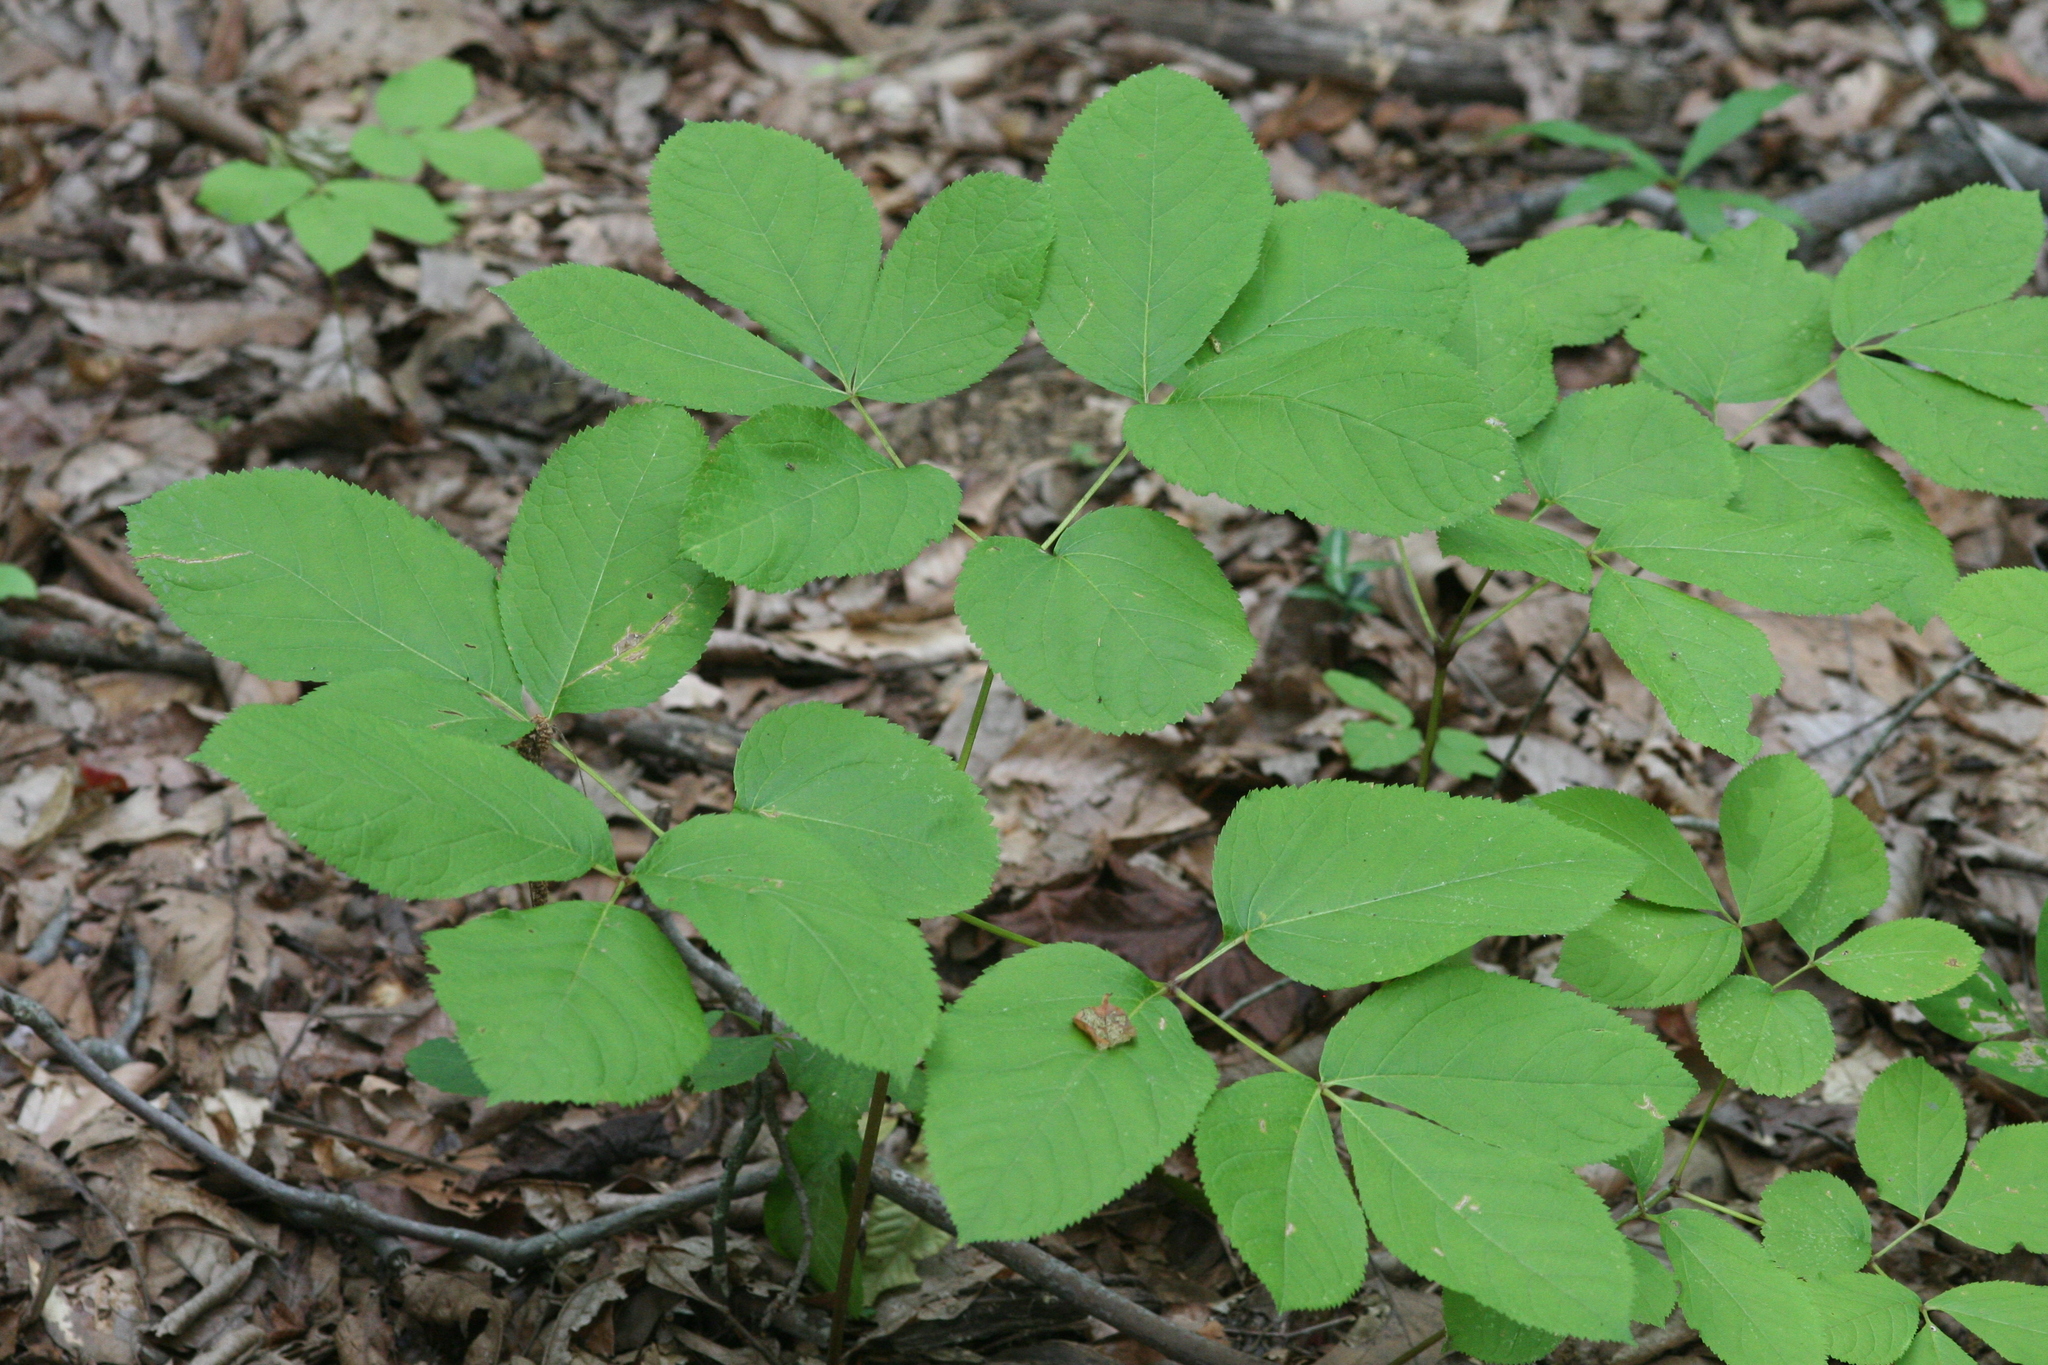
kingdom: Plantae
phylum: Tracheophyta
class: Magnoliopsida
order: Apiales
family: Araliaceae
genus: Aralia
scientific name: Aralia nudicaulis
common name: Wild sarsaparilla
